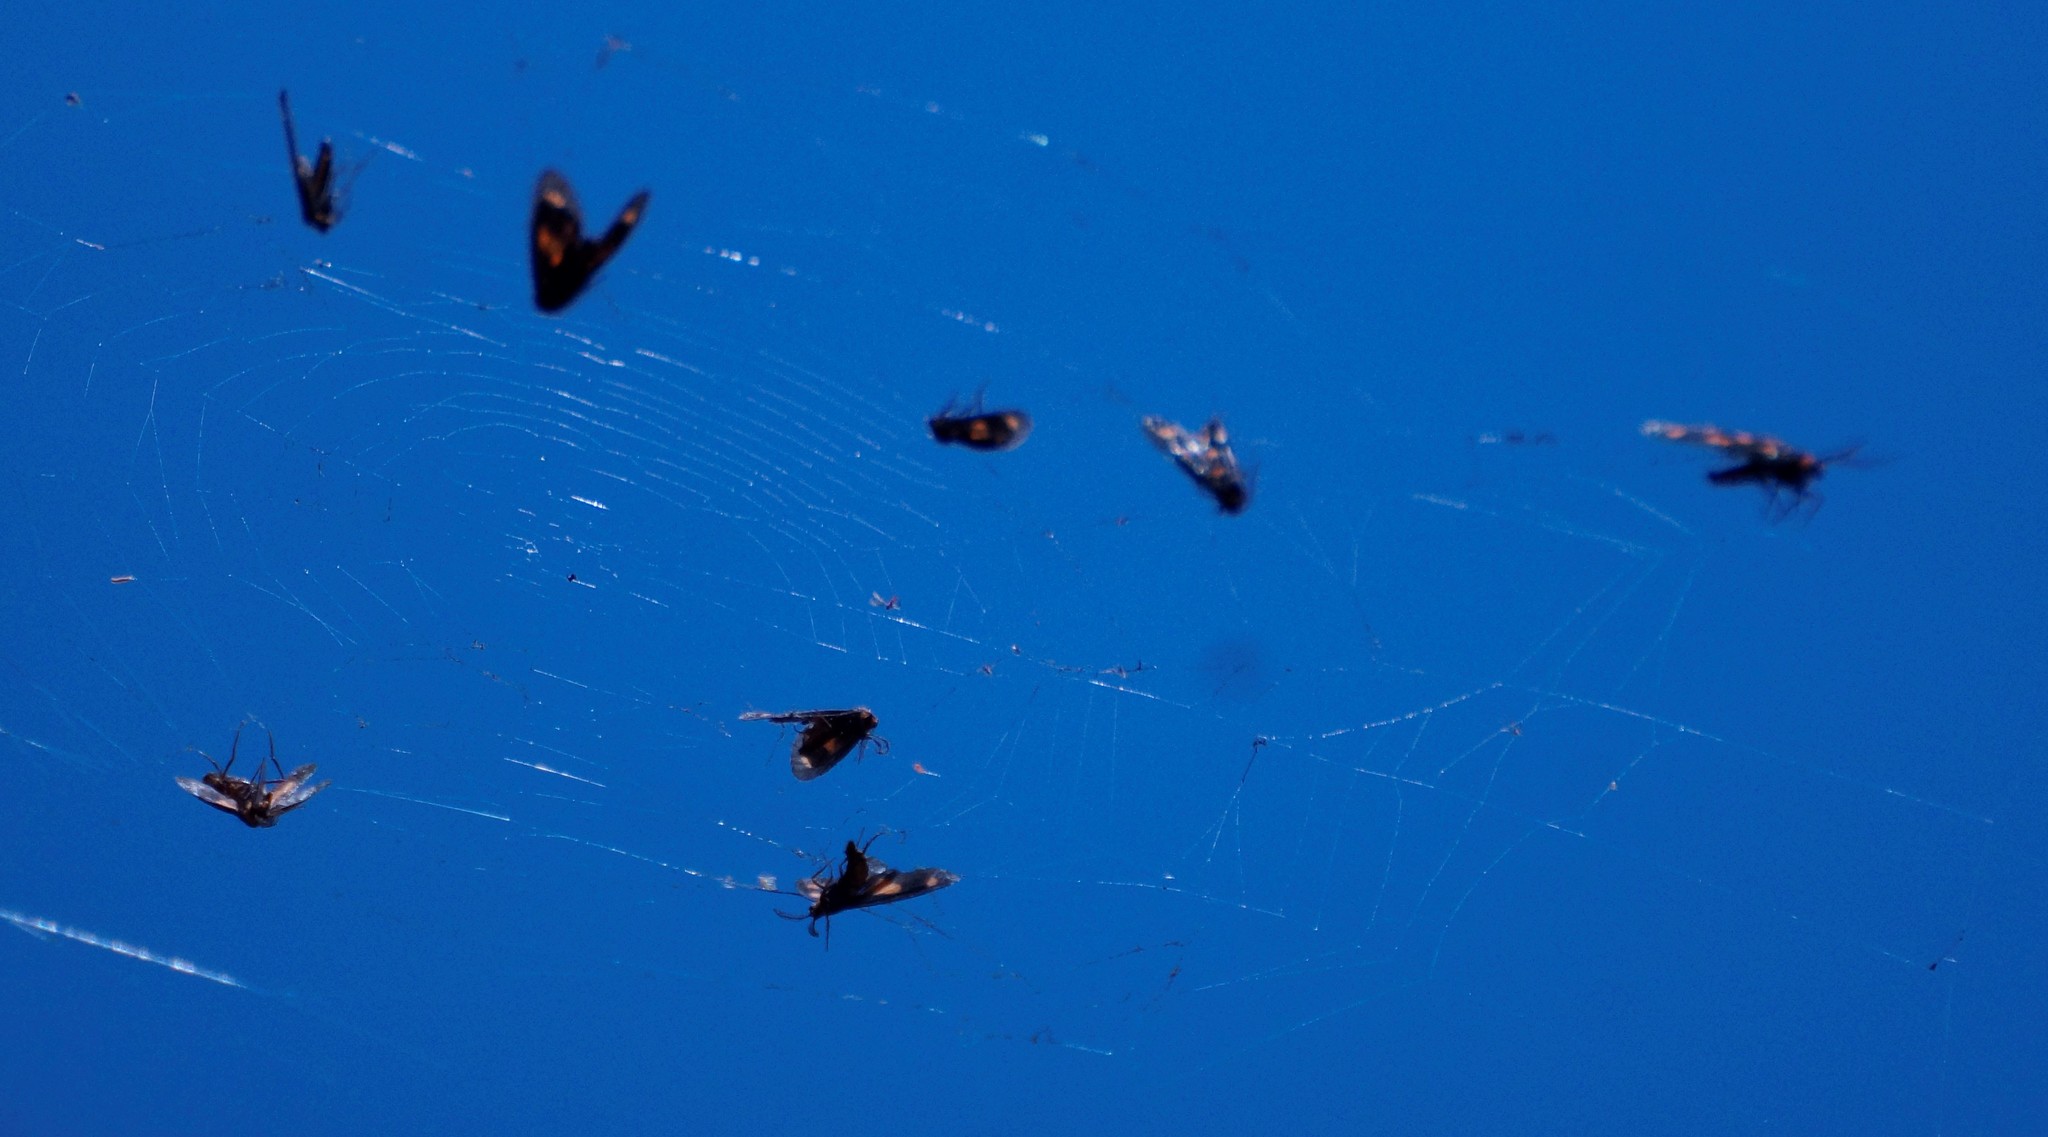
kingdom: Animalia
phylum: Arthropoda
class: Insecta
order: Lepidoptera
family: Erebidae
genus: Asura
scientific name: Asura cervicalis
